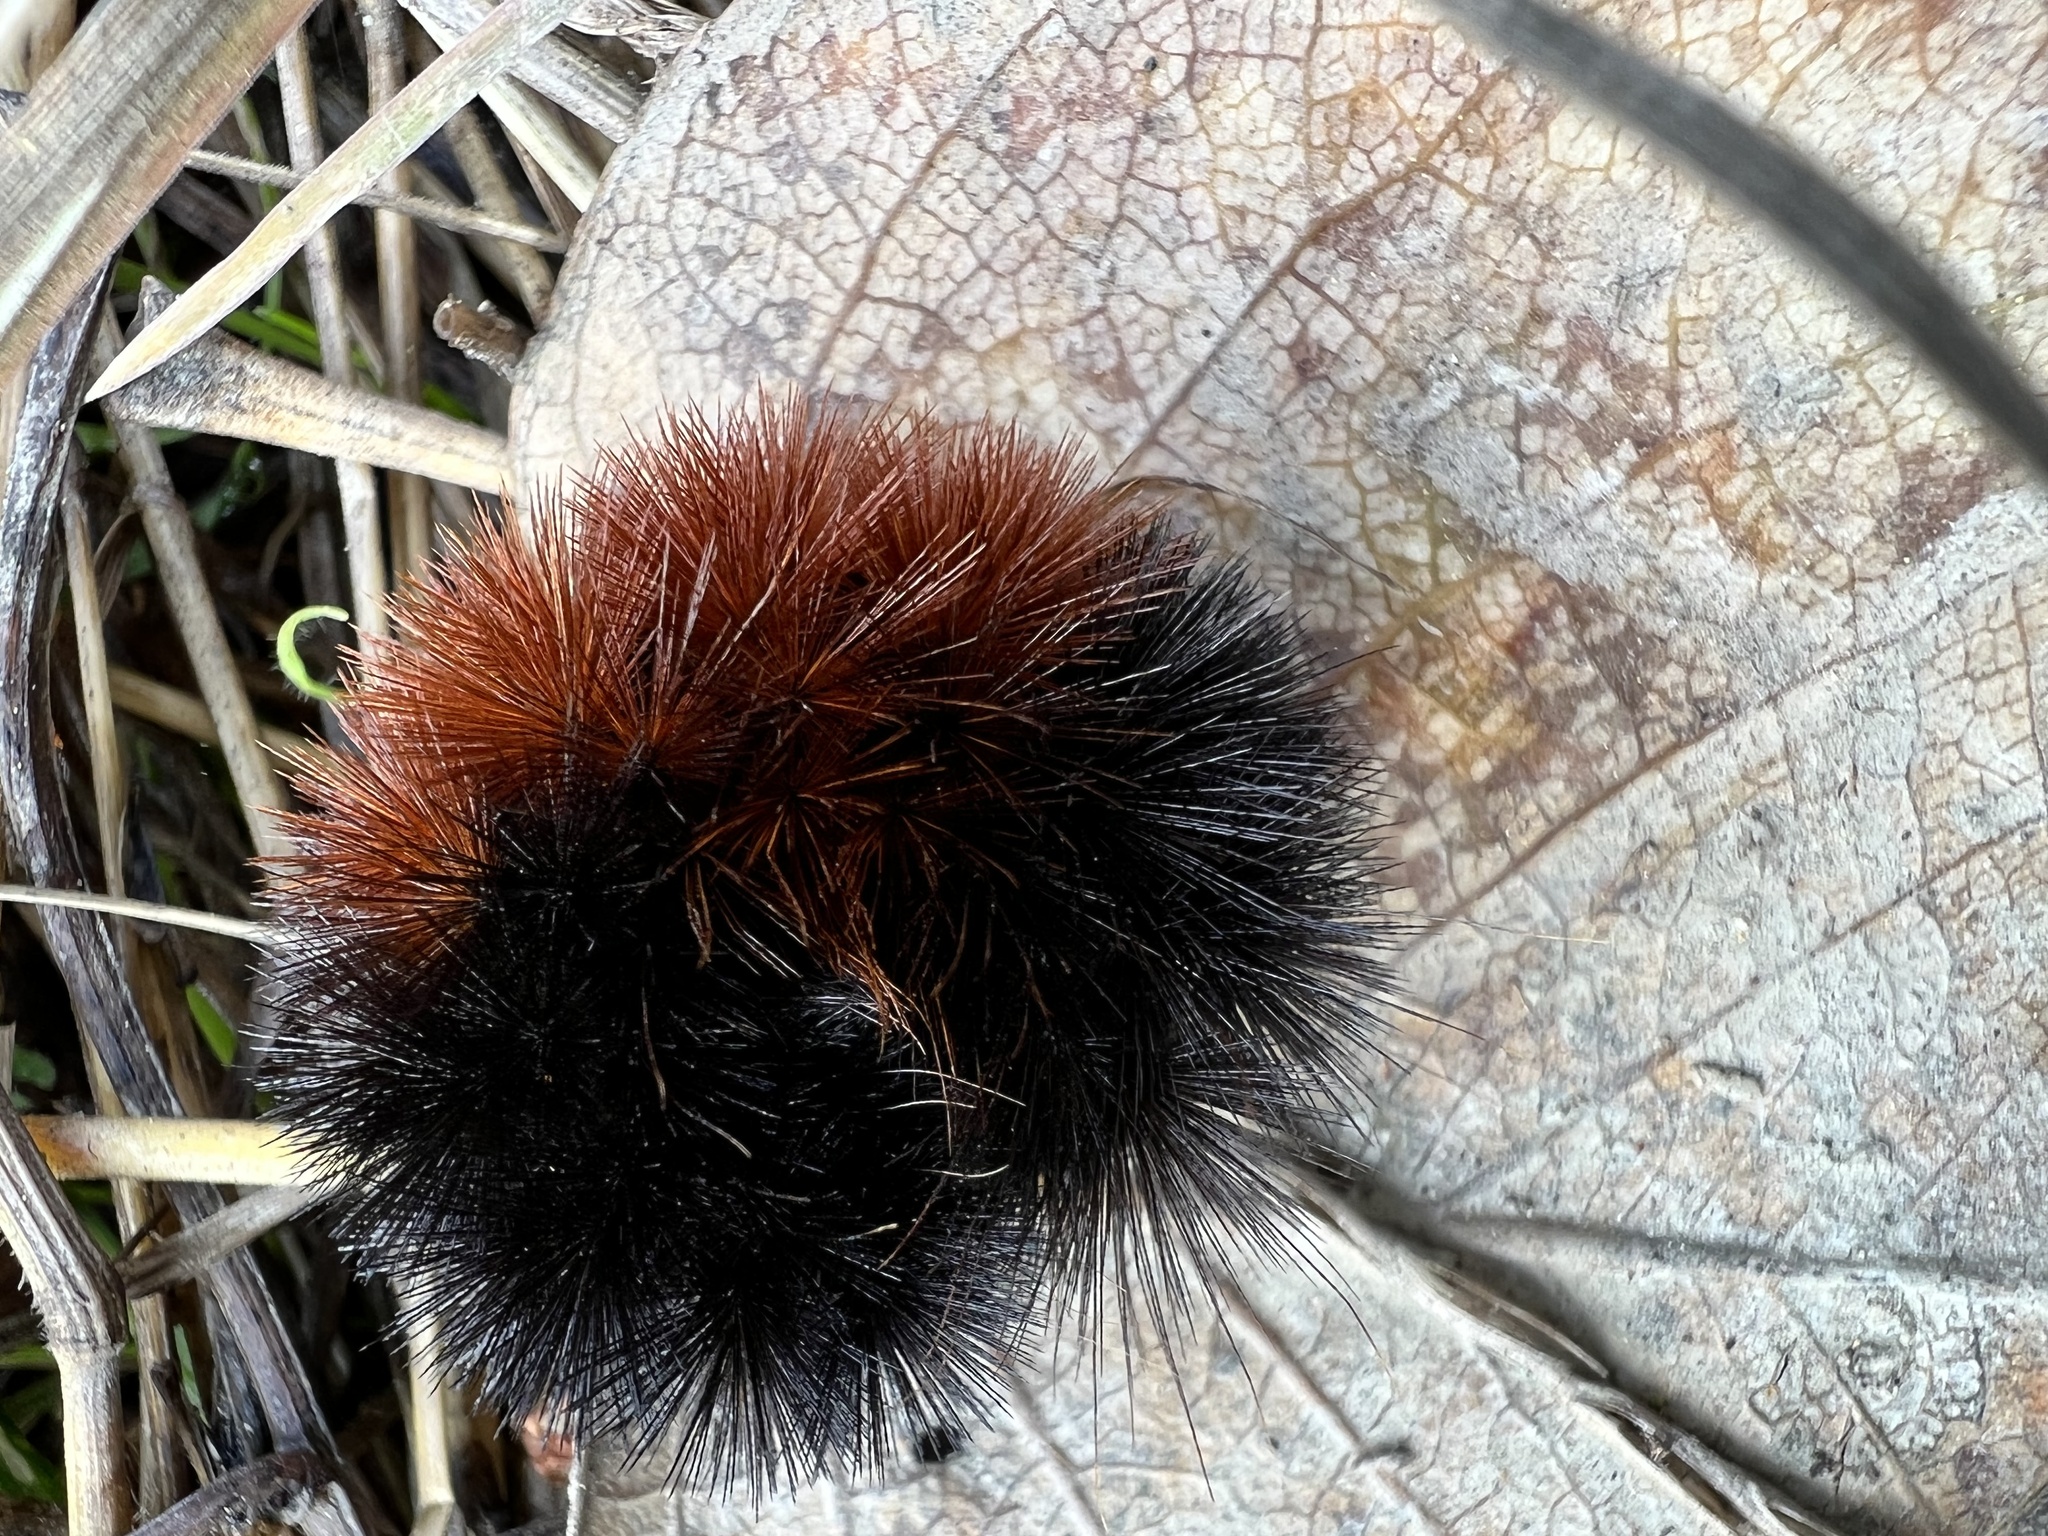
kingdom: Animalia
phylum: Arthropoda
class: Insecta
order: Lepidoptera
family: Erebidae
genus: Pyrrharctia
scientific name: Pyrrharctia isabella
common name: Isabella tiger moth
